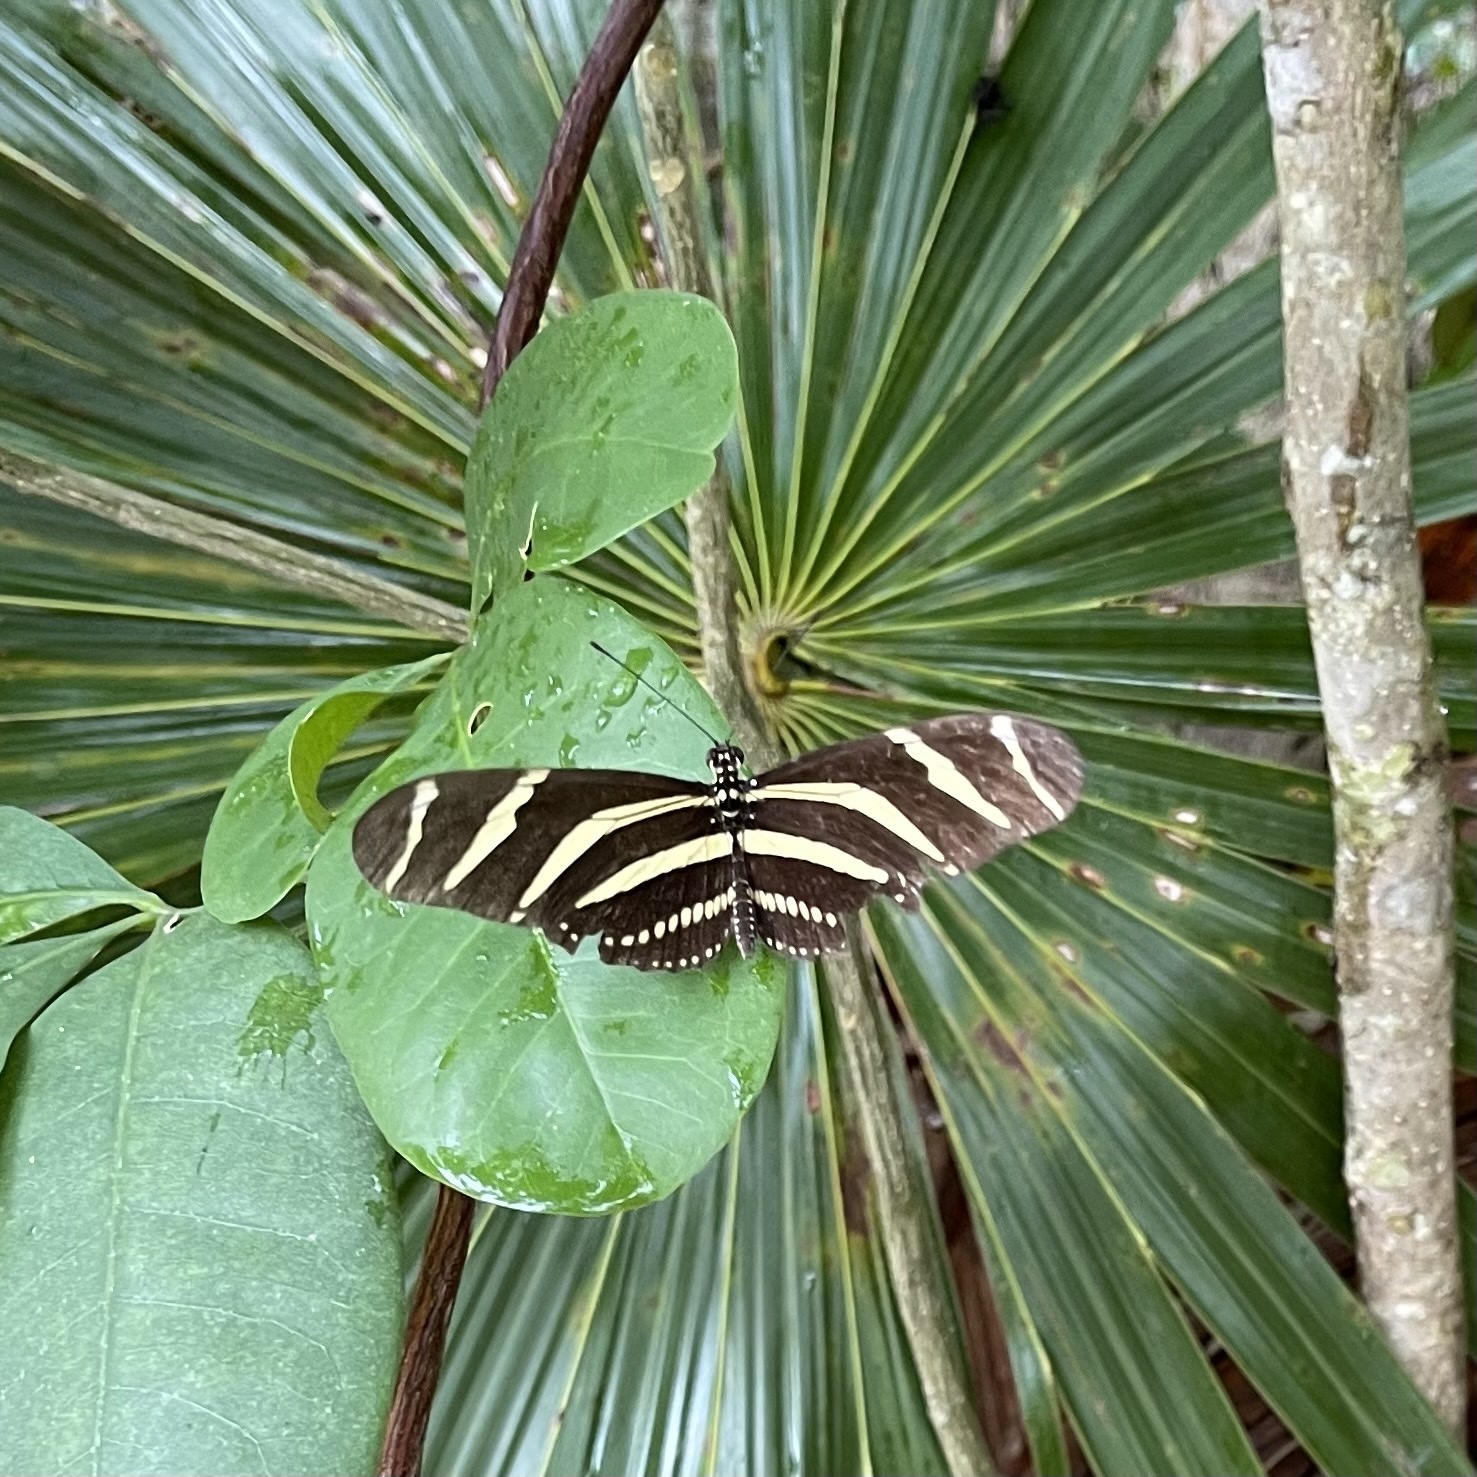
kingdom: Animalia
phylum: Arthropoda
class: Insecta
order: Lepidoptera
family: Nymphalidae
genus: Heliconius
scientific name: Heliconius charithonia
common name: Zebra long wing
